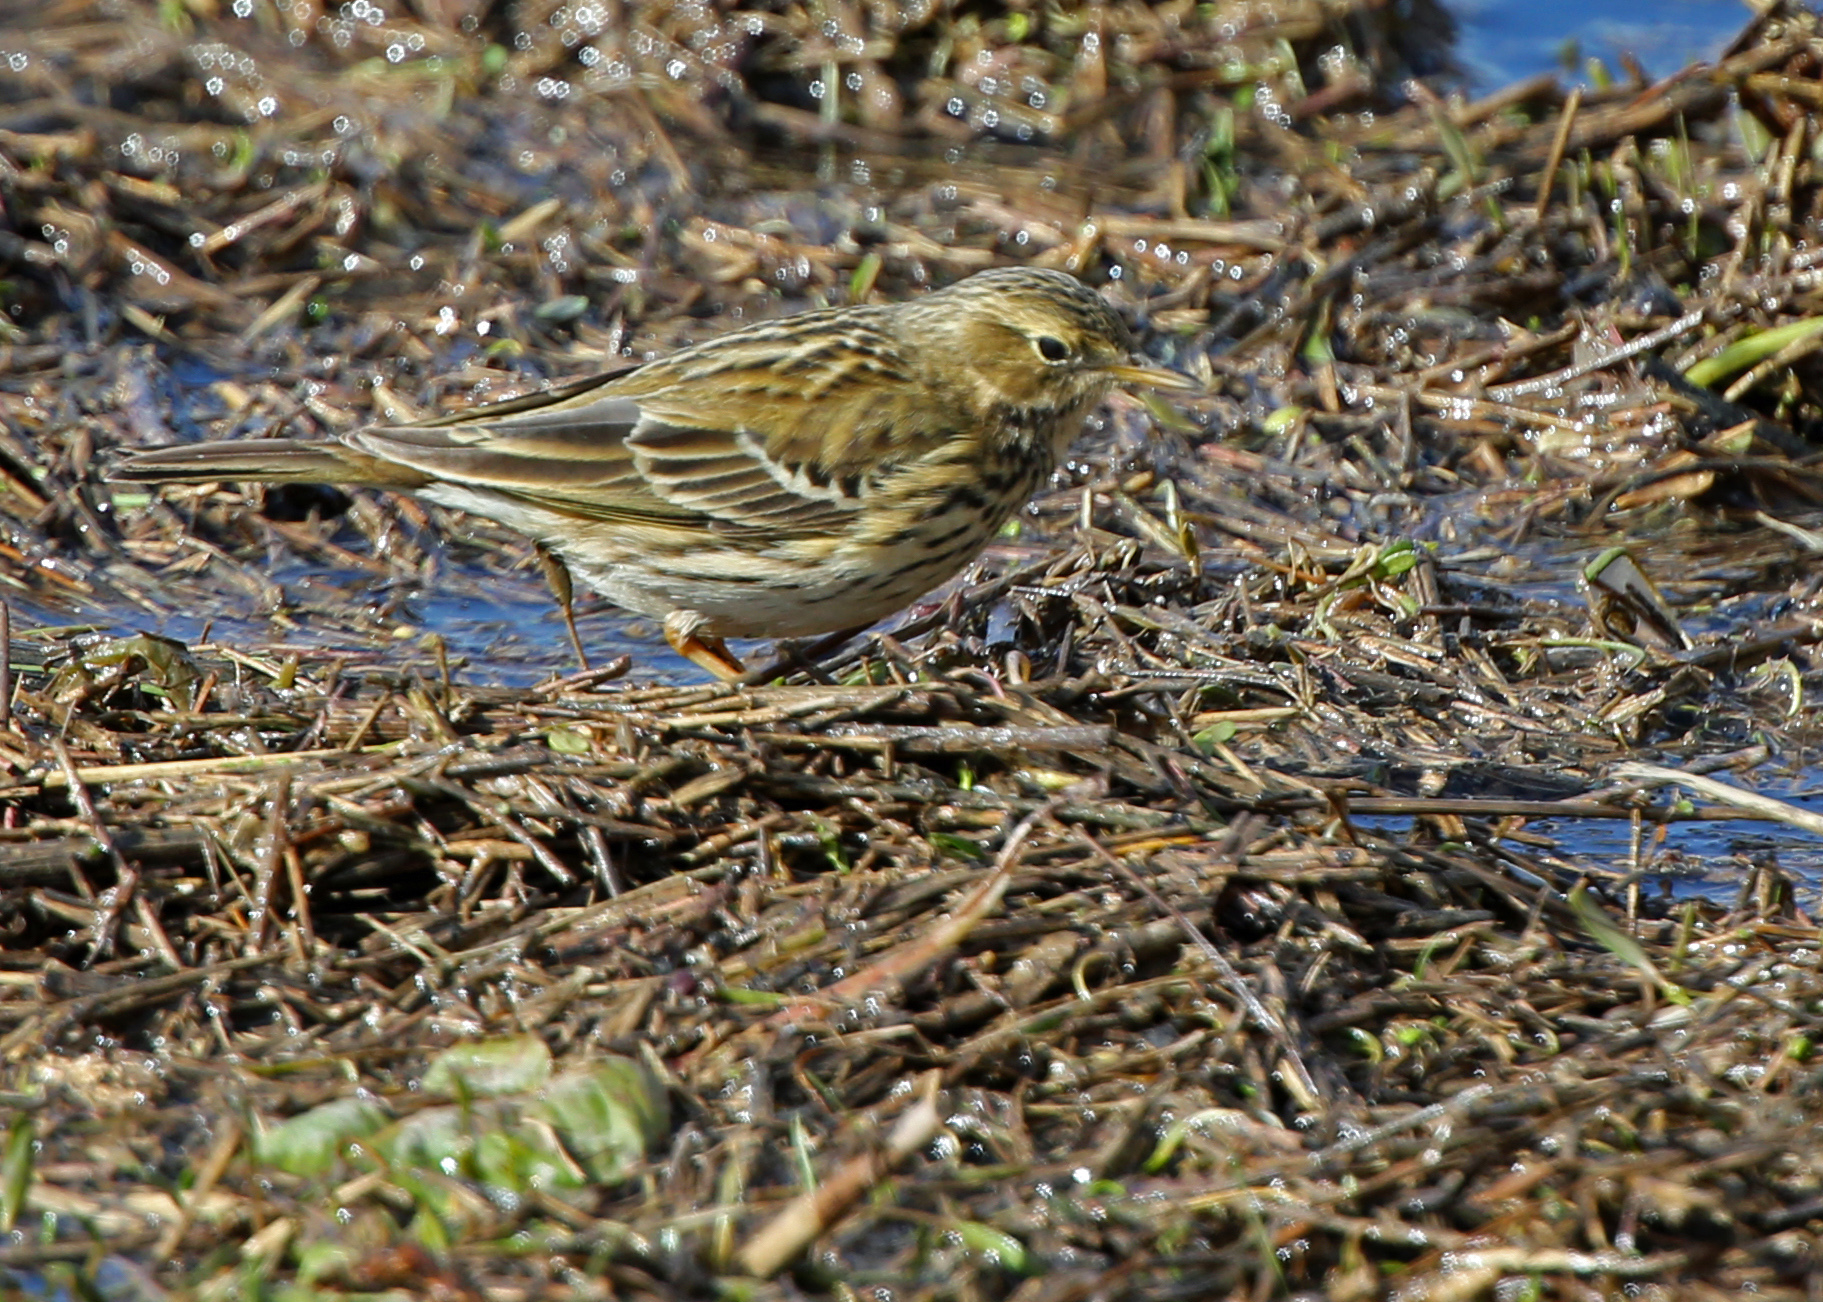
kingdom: Animalia
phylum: Chordata
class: Aves
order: Passeriformes
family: Motacillidae
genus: Anthus
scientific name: Anthus pratensis
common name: Meadow pipit
